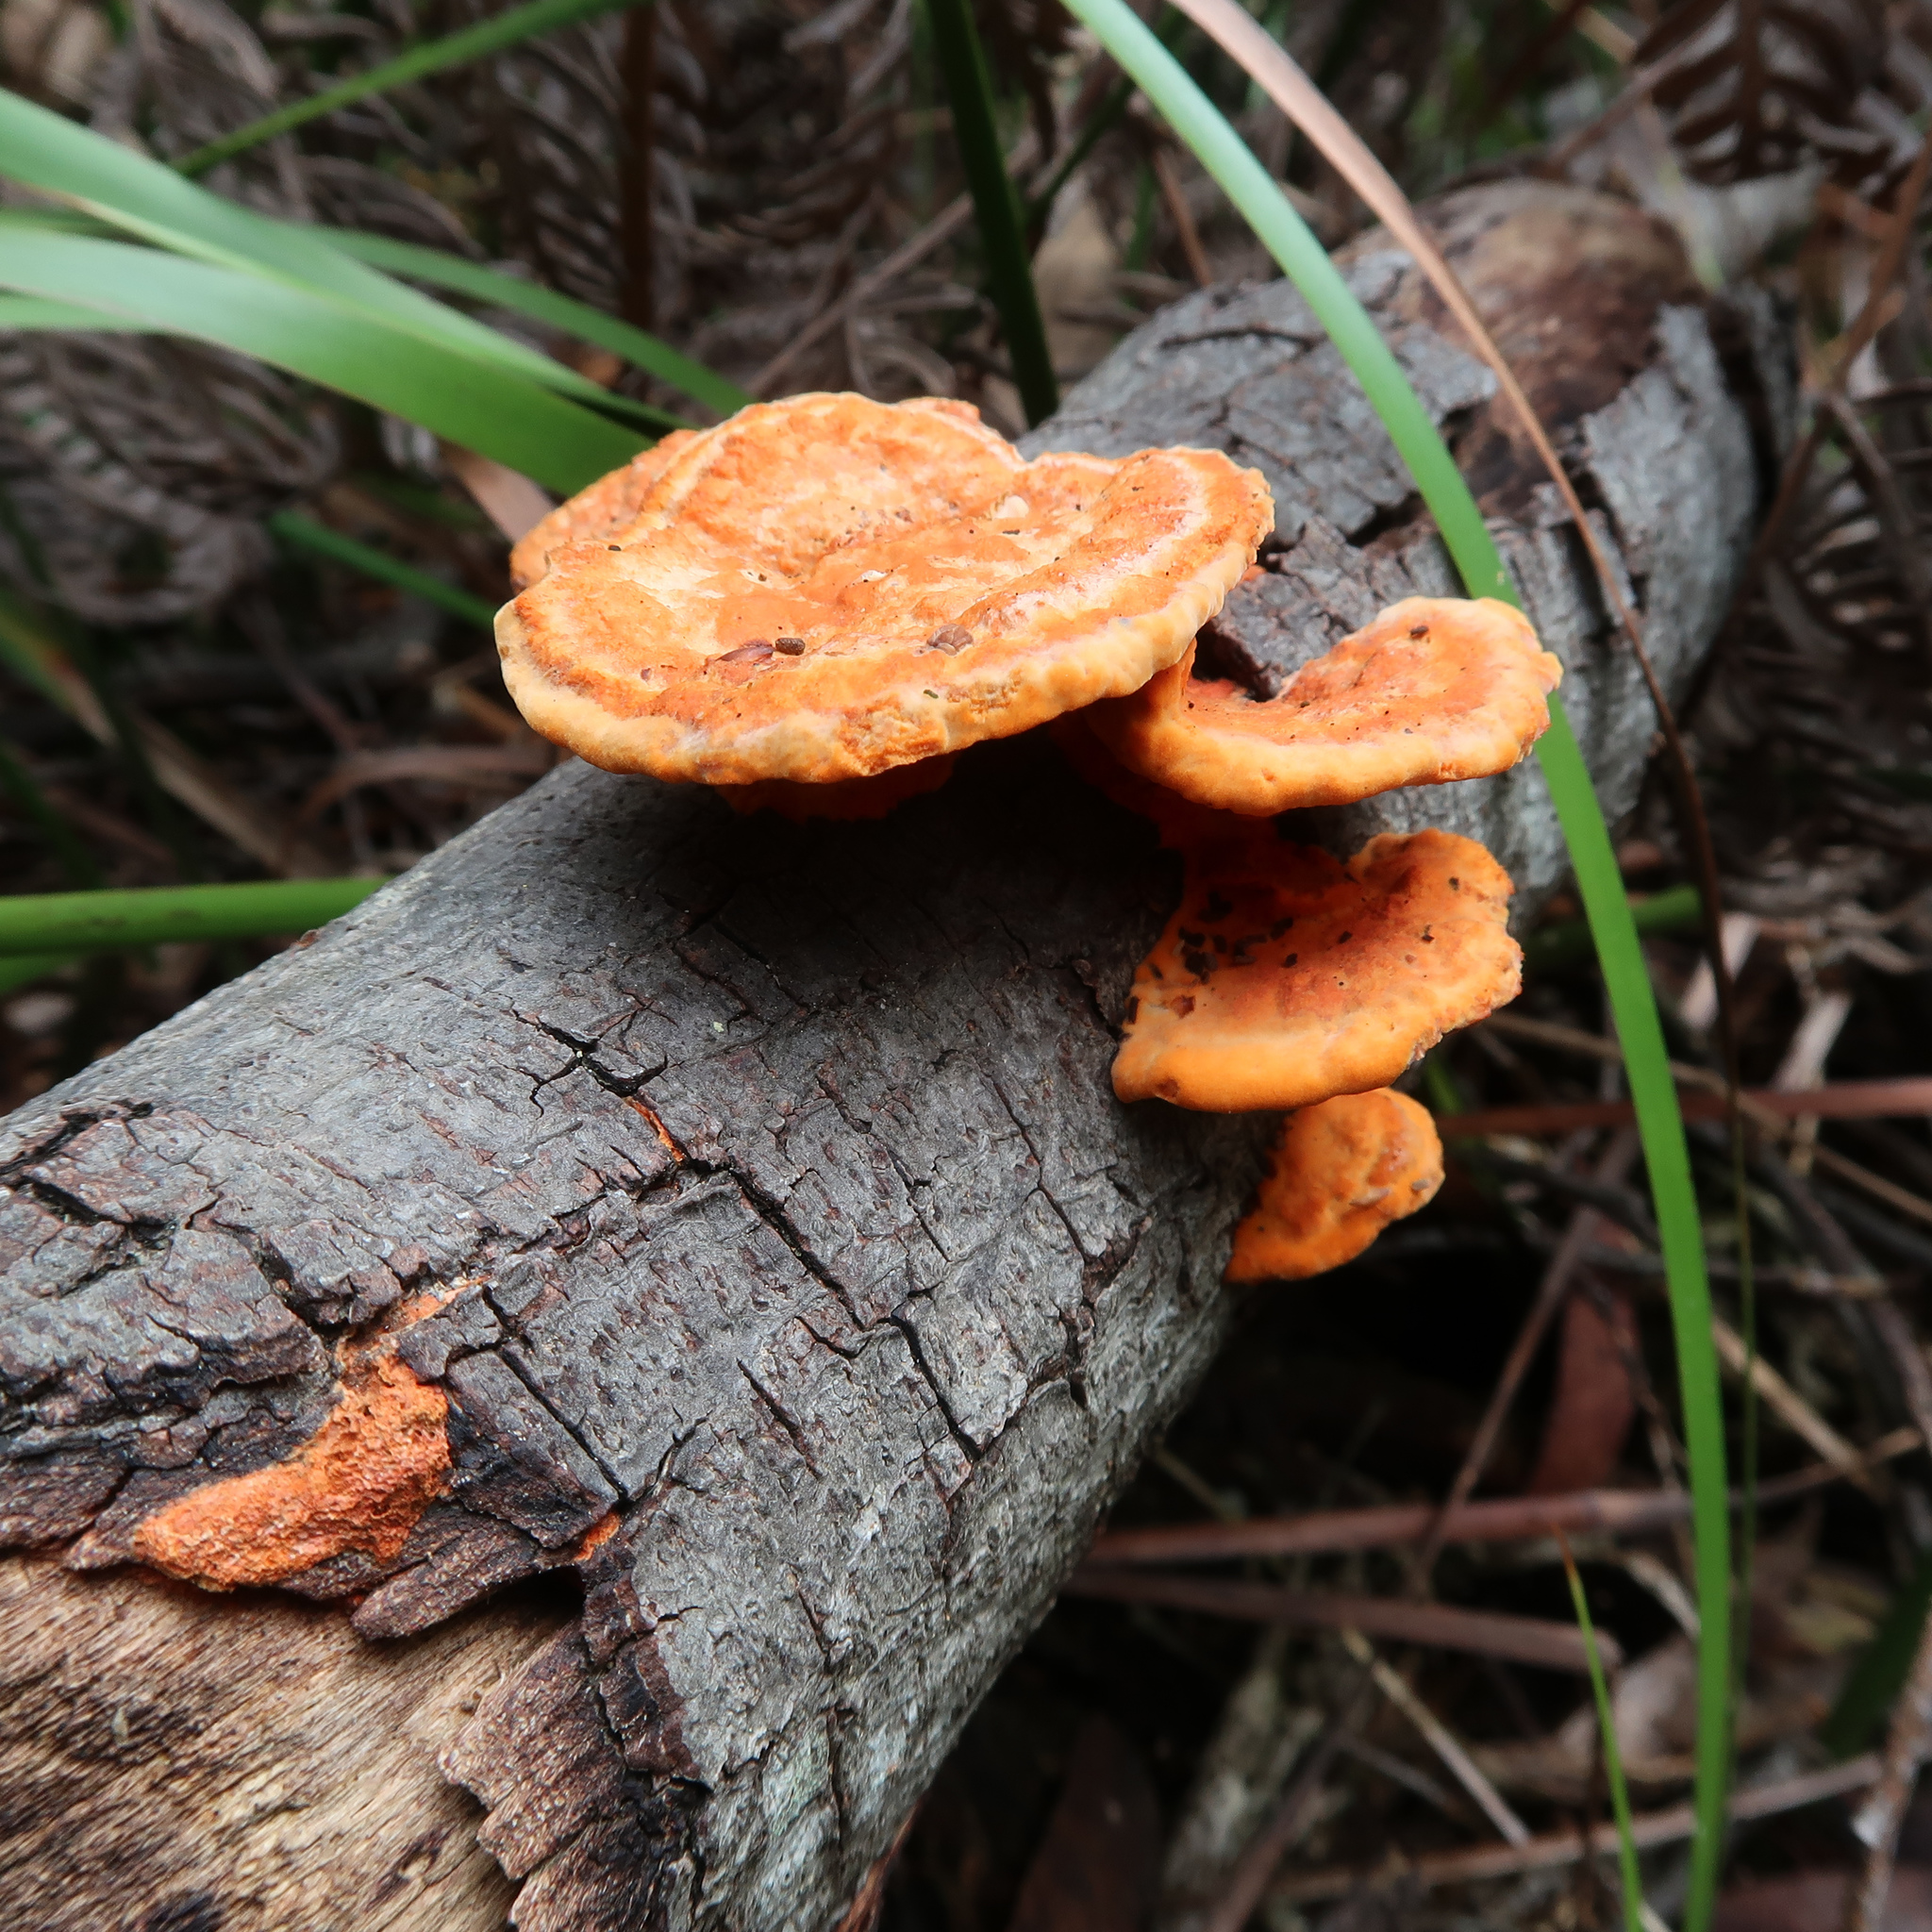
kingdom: Fungi
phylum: Basidiomycota
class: Agaricomycetes
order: Polyporales
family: Polyporaceae
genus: Trametes
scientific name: Trametes coccinea
